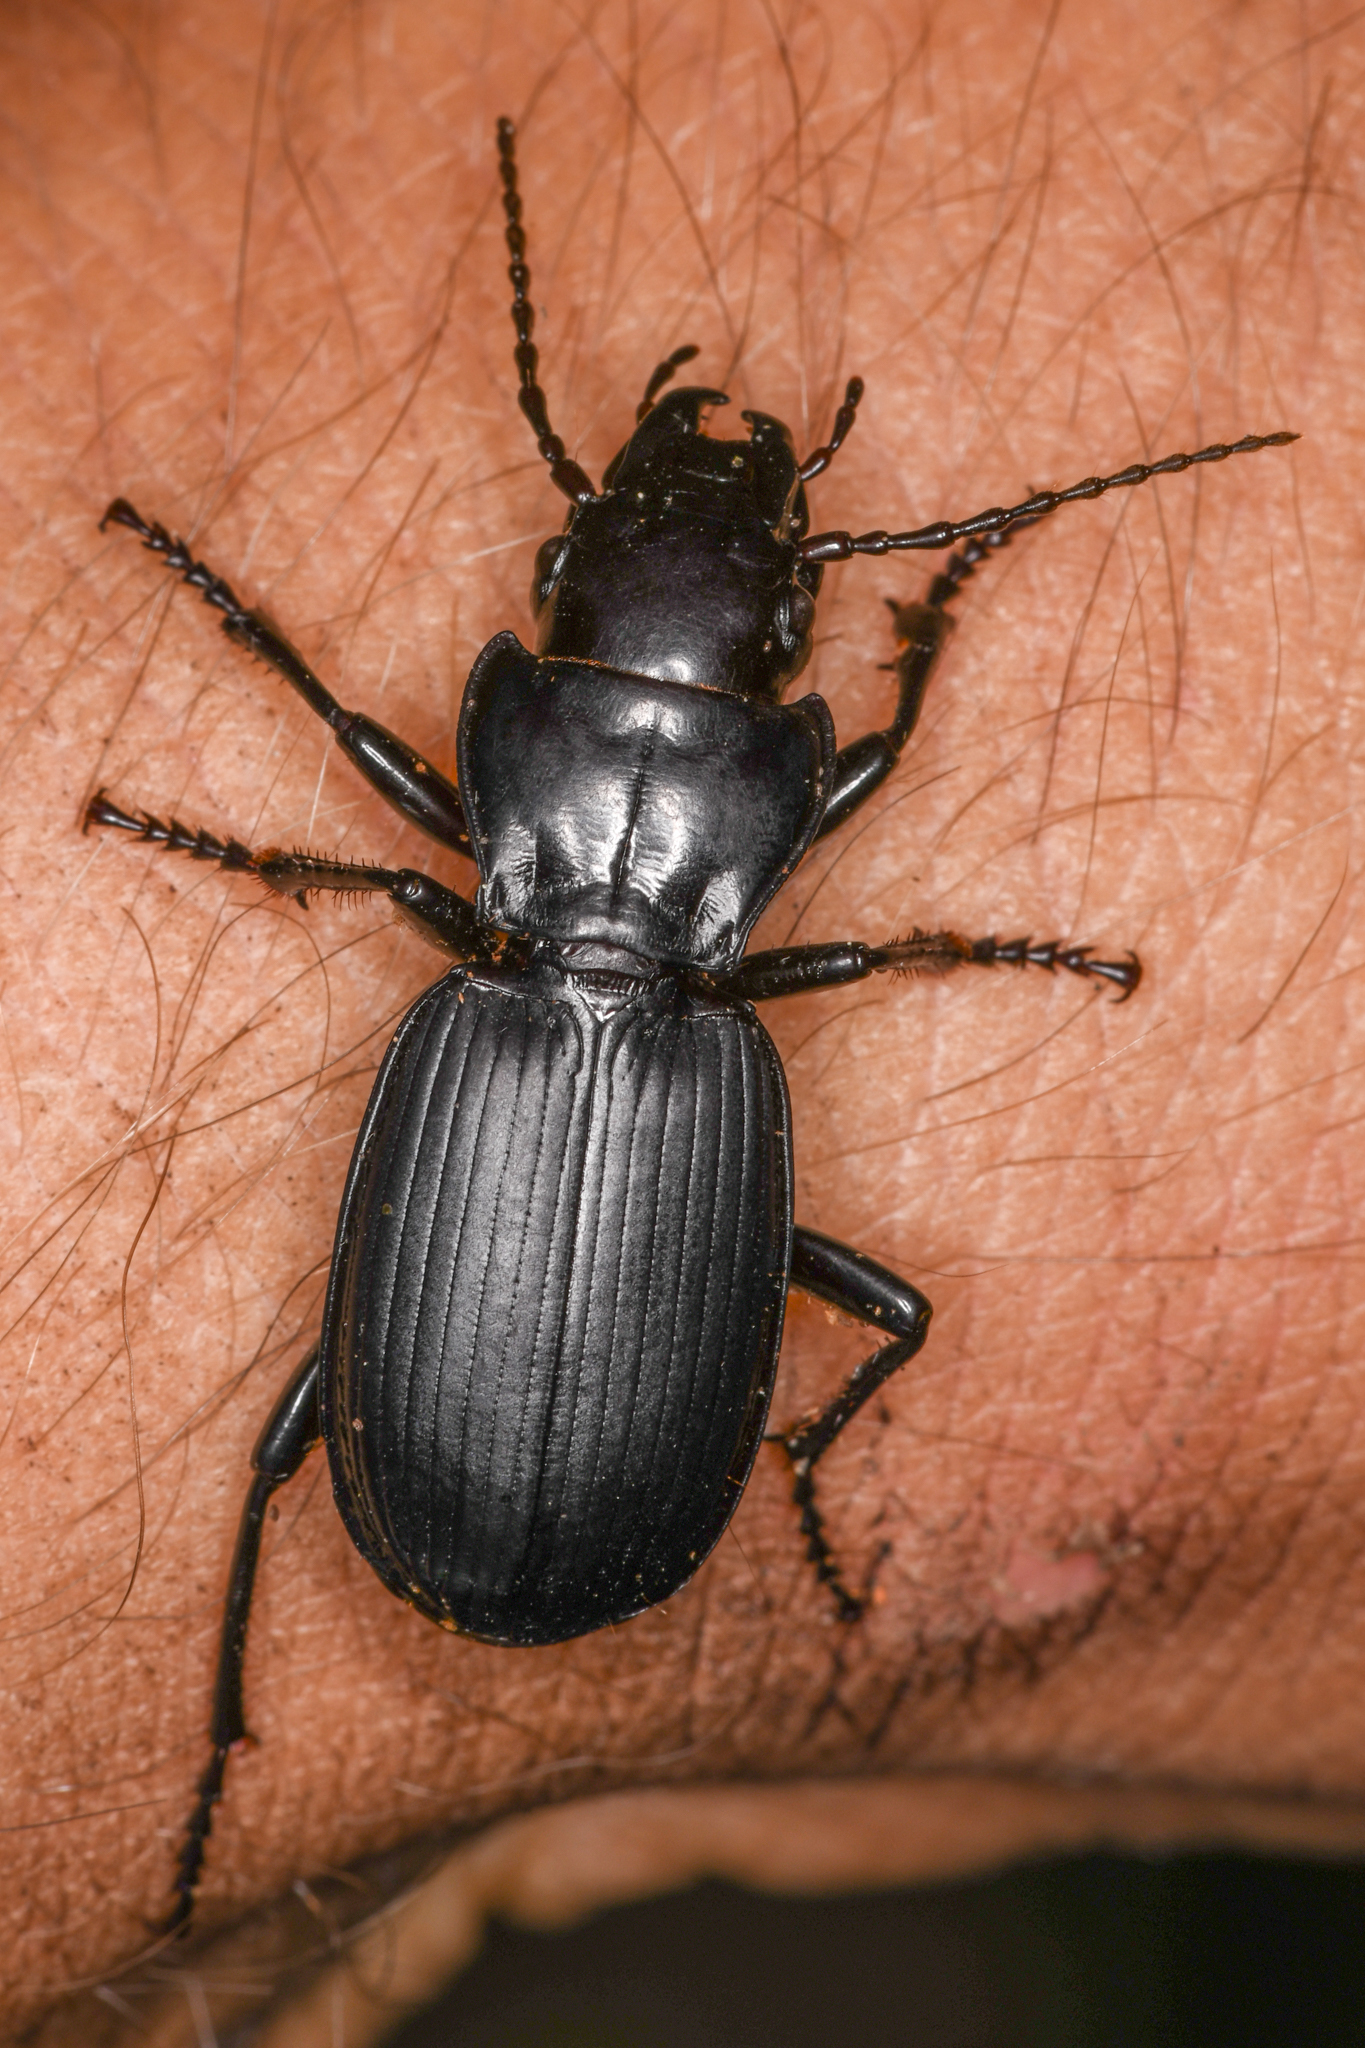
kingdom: Animalia
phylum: Arthropoda
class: Insecta
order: Coleoptera
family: Carabidae
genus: Pterostichus
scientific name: Pterostichus lama
